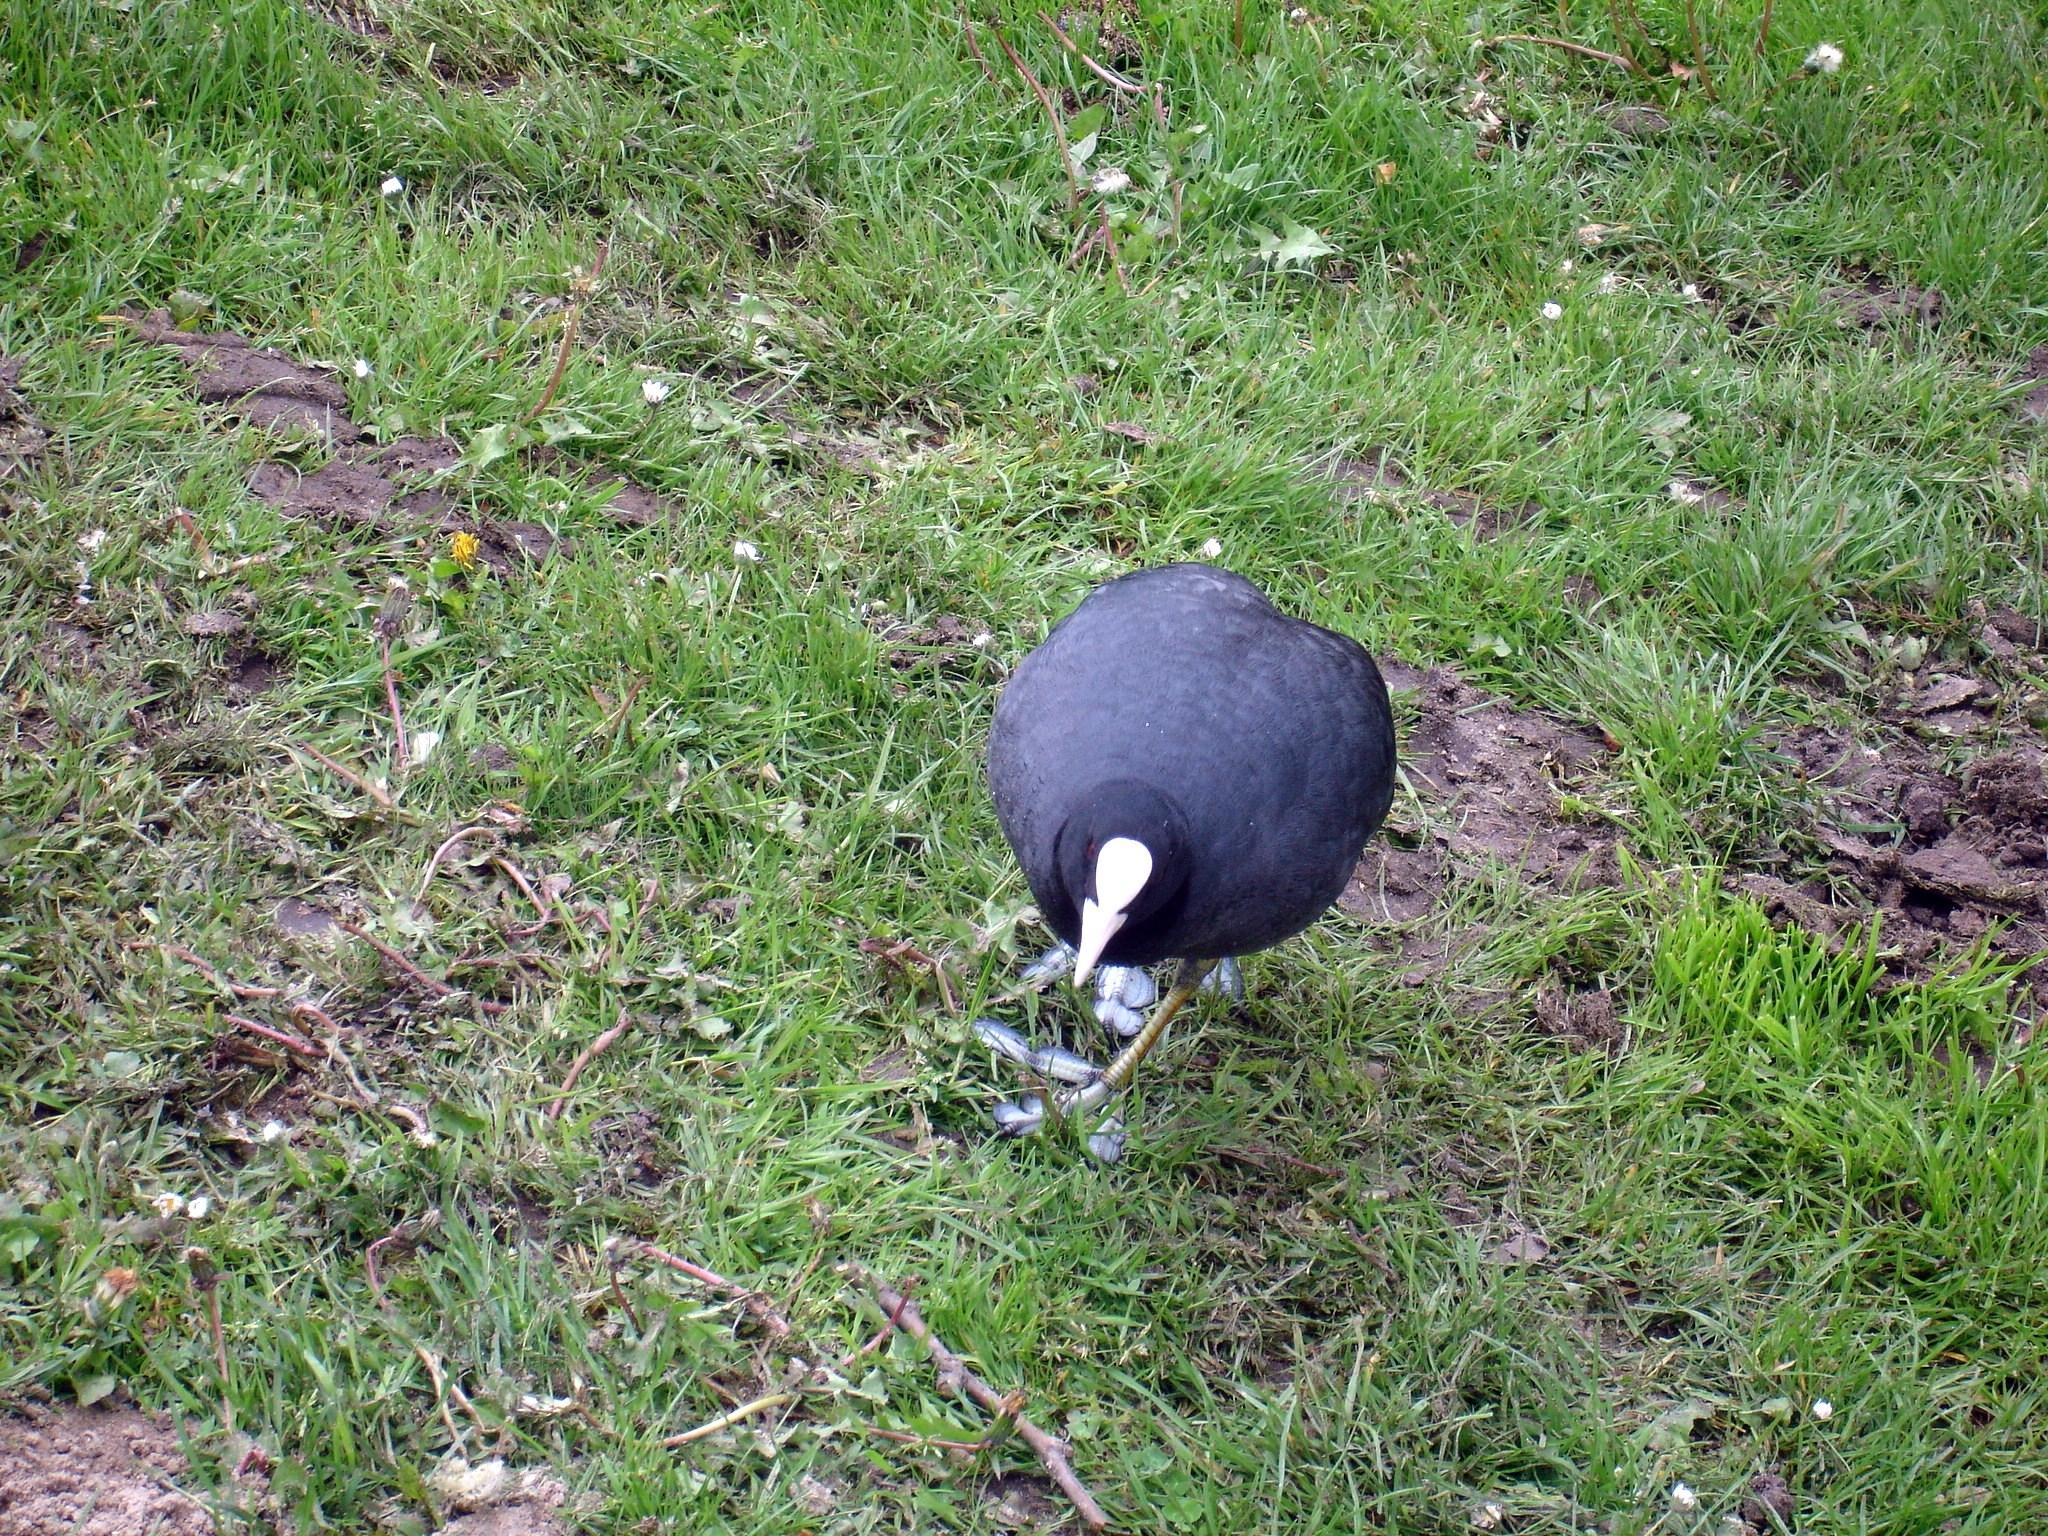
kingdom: Animalia
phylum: Chordata
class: Aves
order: Gruiformes
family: Rallidae
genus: Fulica
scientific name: Fulica atra
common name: Eurasian coot
